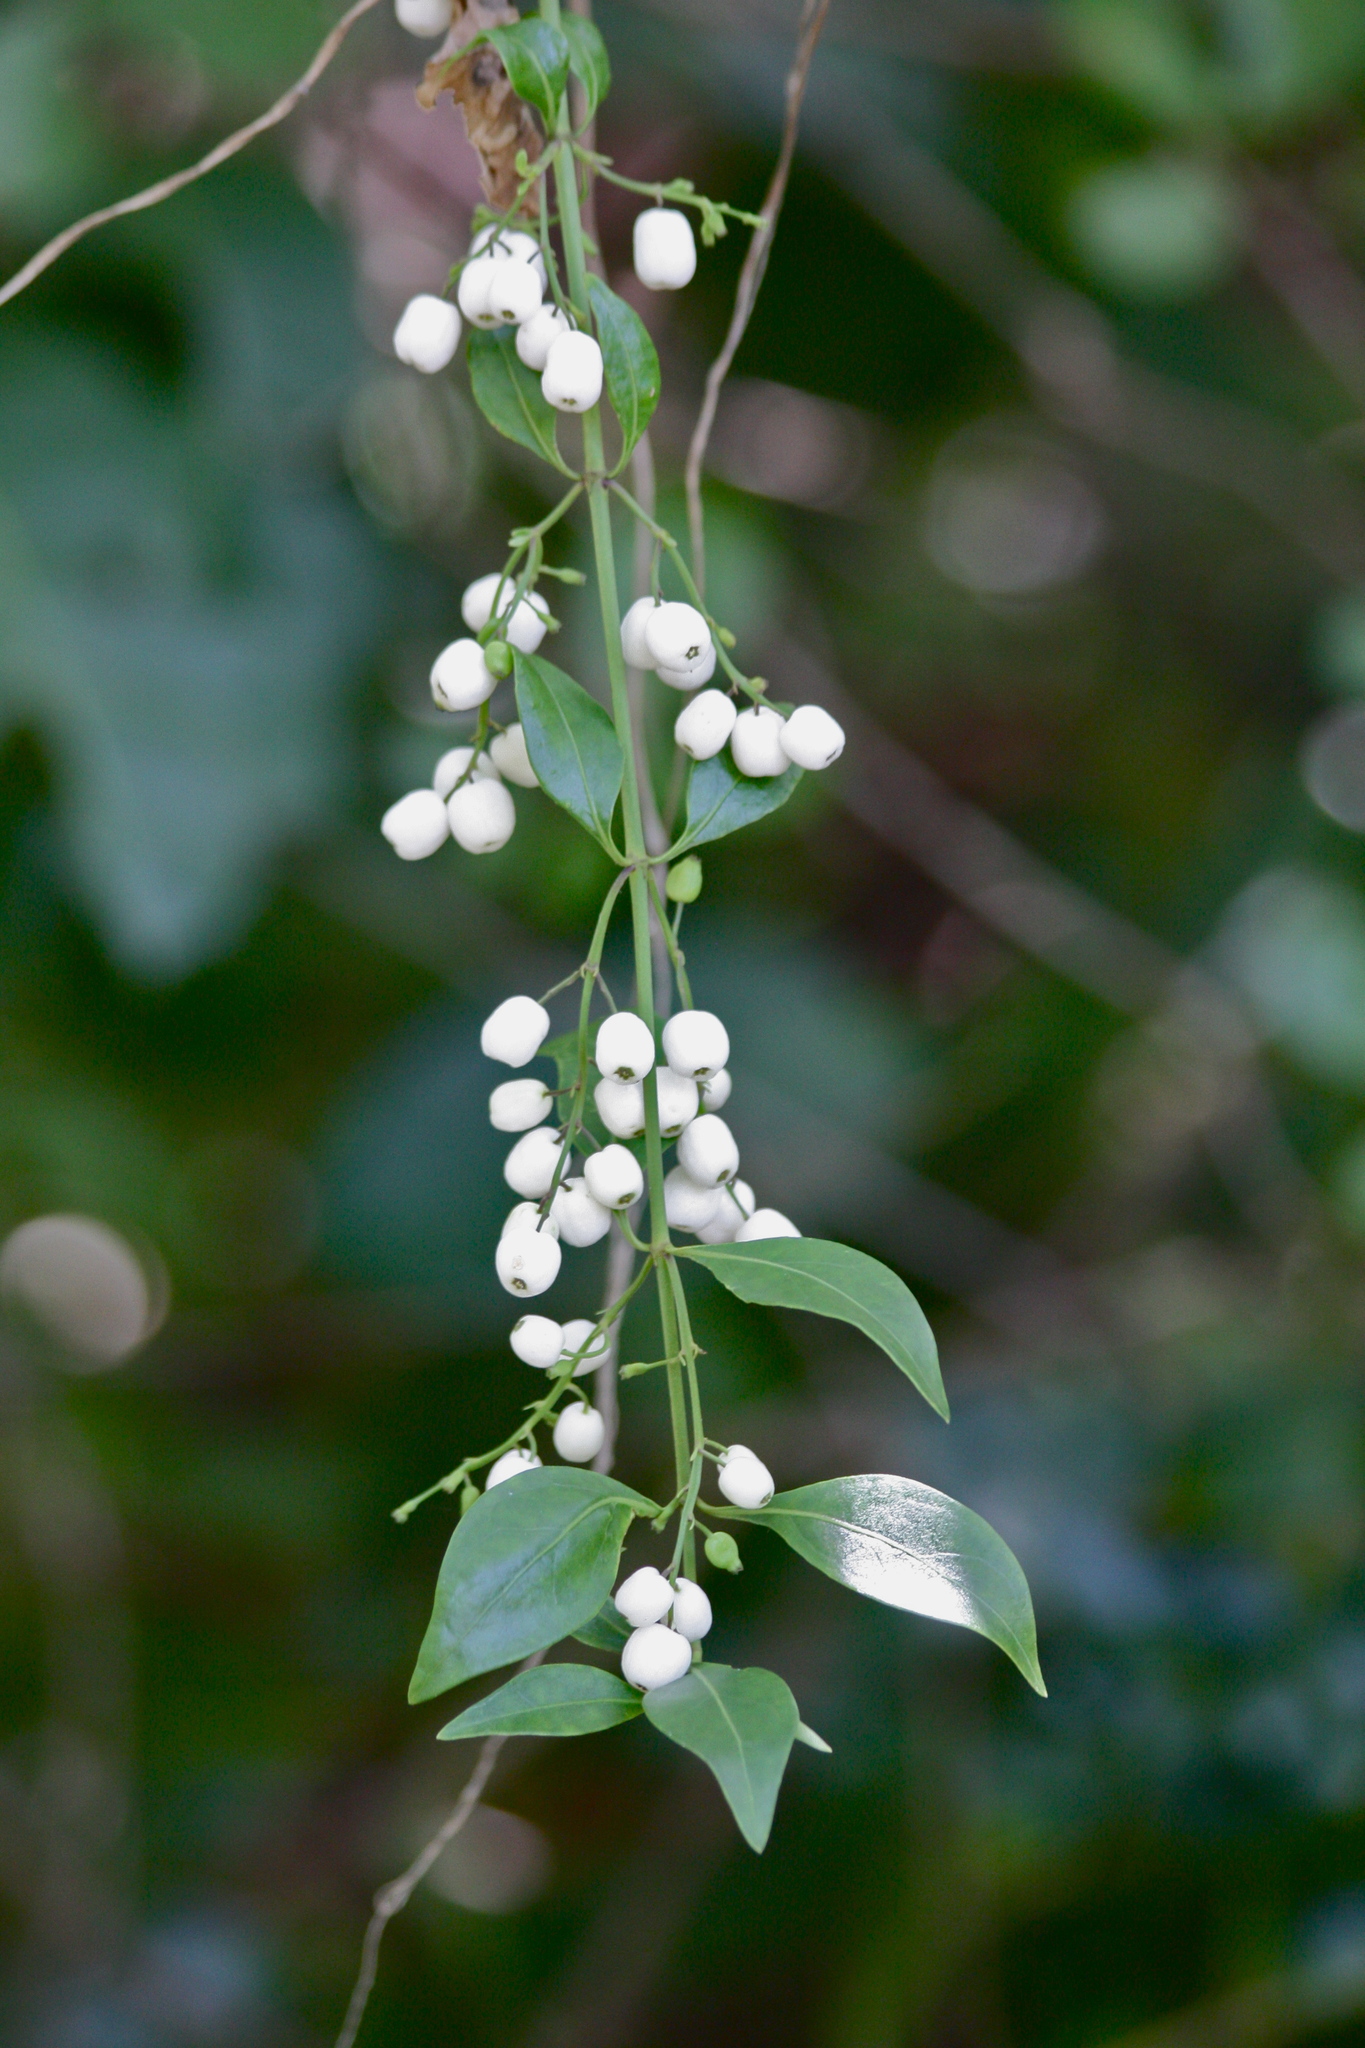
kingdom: Plantae
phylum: Tracheophyta
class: Magnoliopsida
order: Gentianales
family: Rubiaceae
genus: Chiococca
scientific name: Chiococca alba
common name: Snowberry
